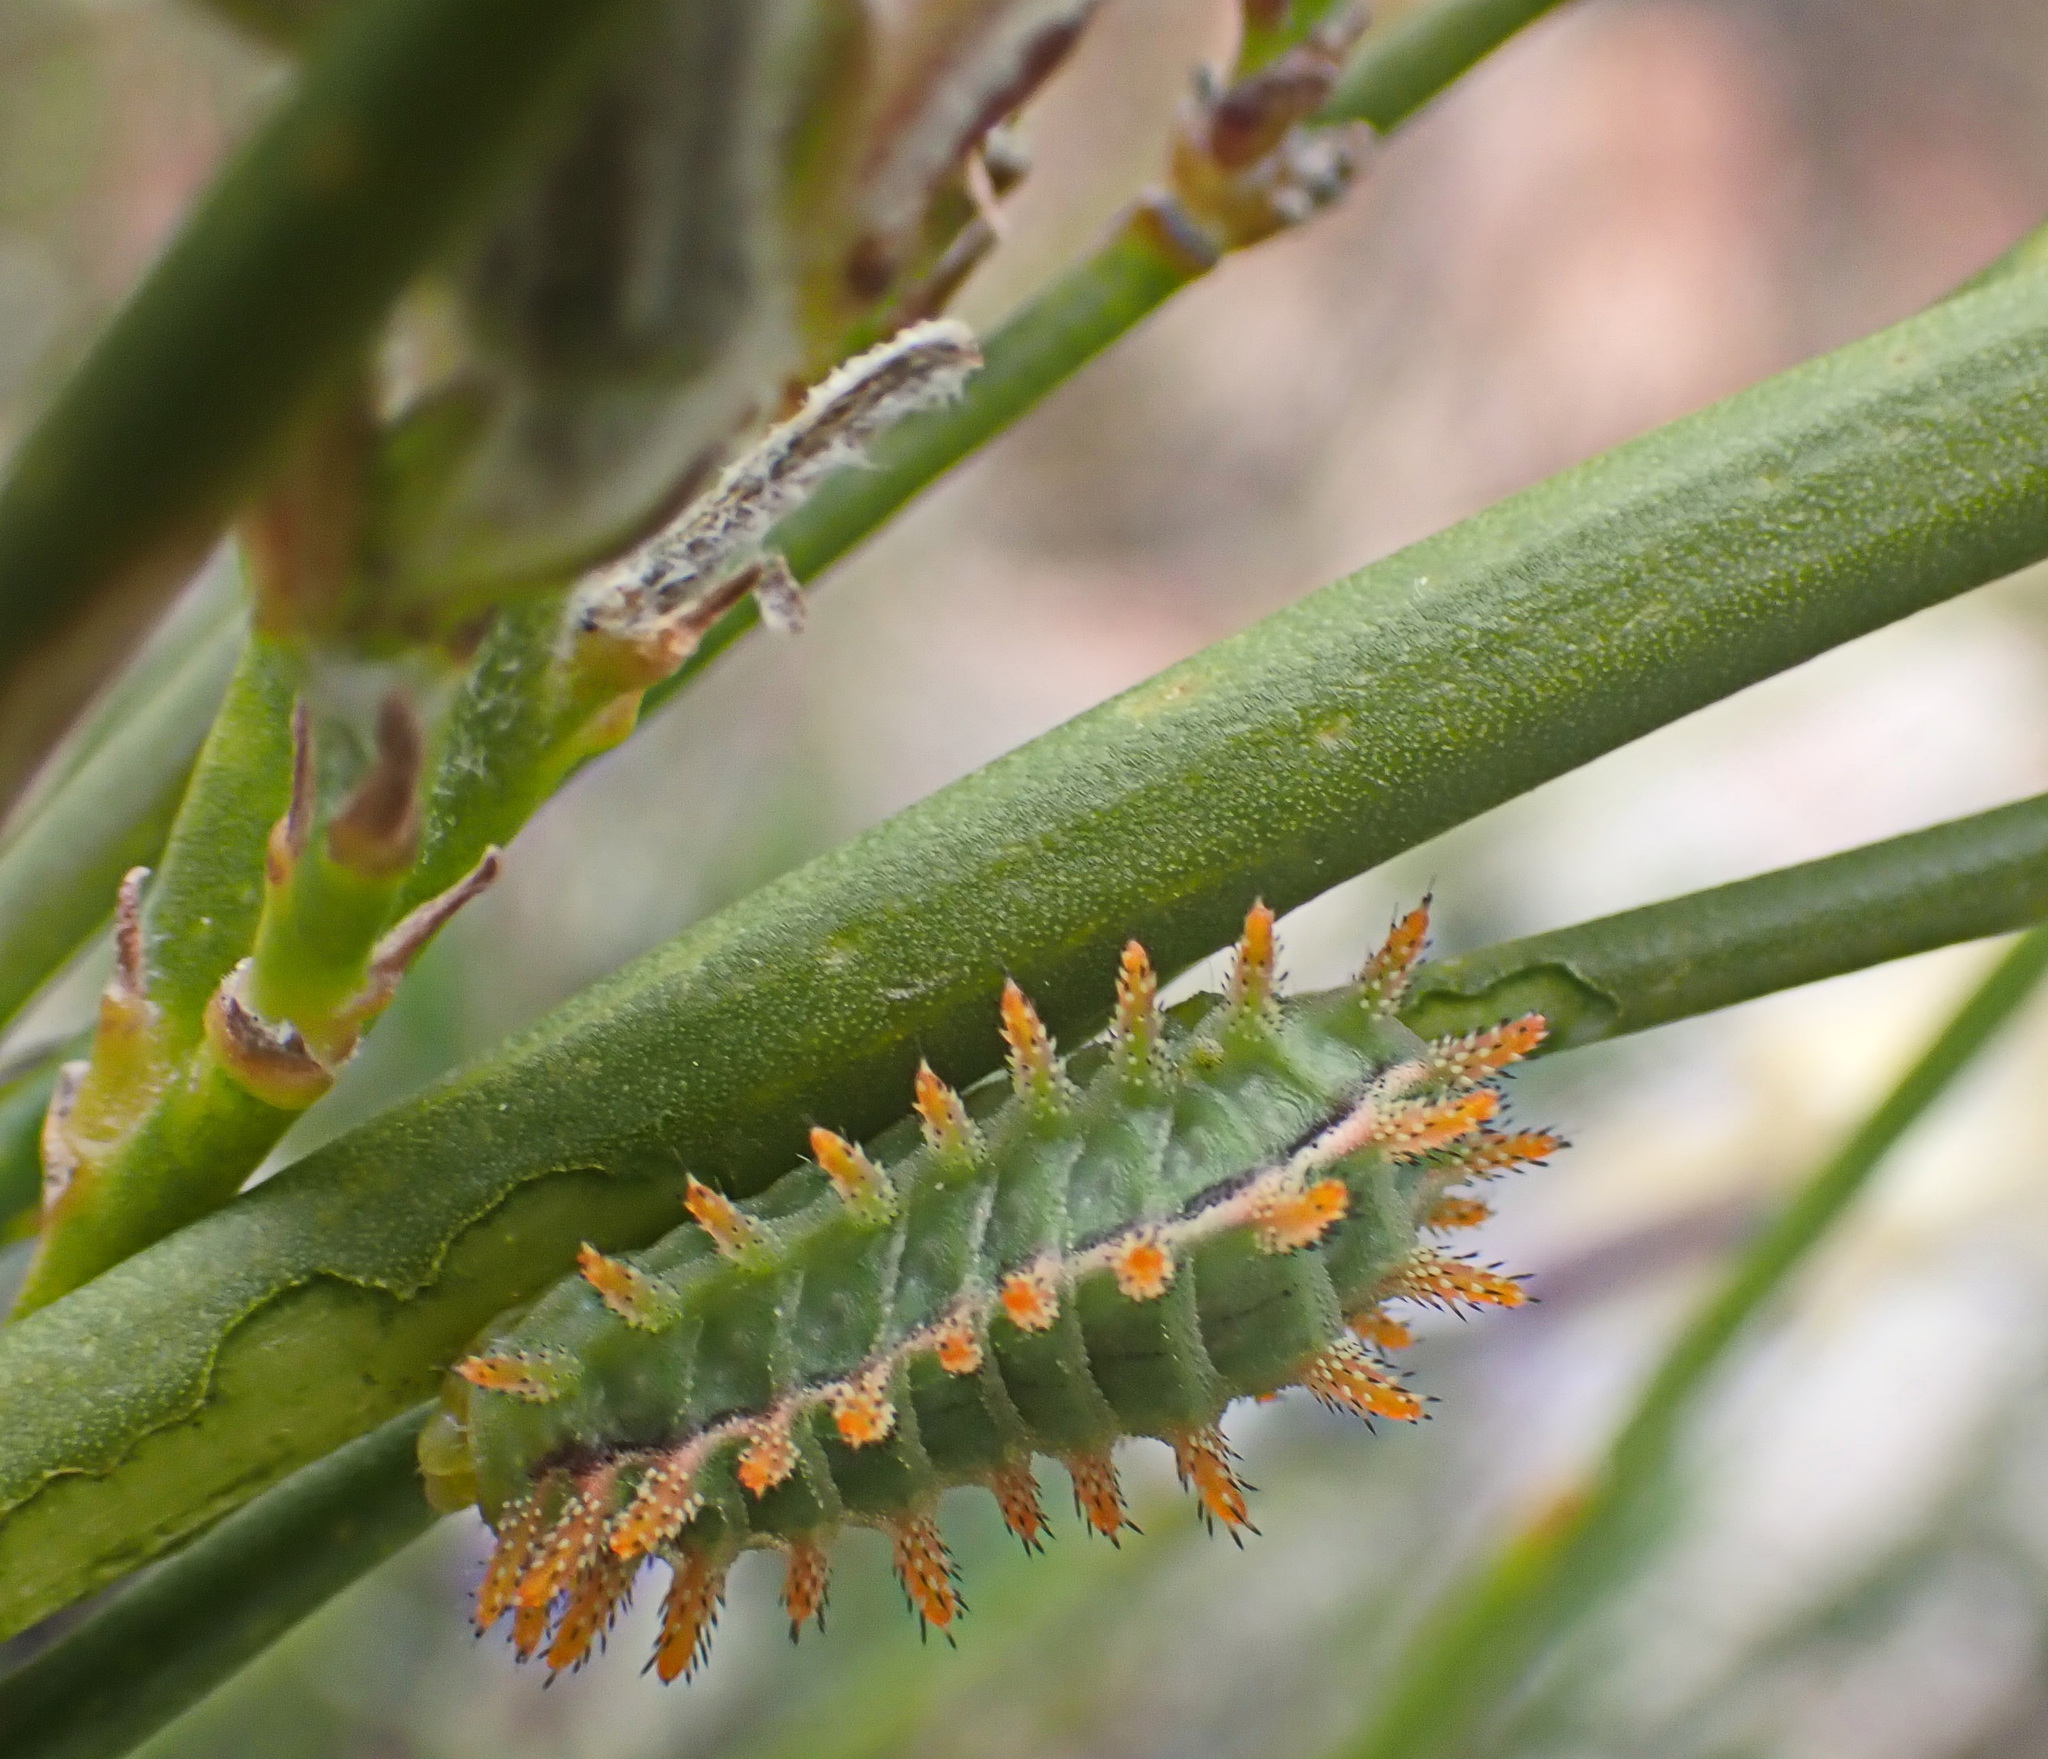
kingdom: Animalia
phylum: Arthropoda
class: Insecta
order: Lepidoptera
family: Limacodidae
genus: Omocenoides
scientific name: Omocenoides isophanes
